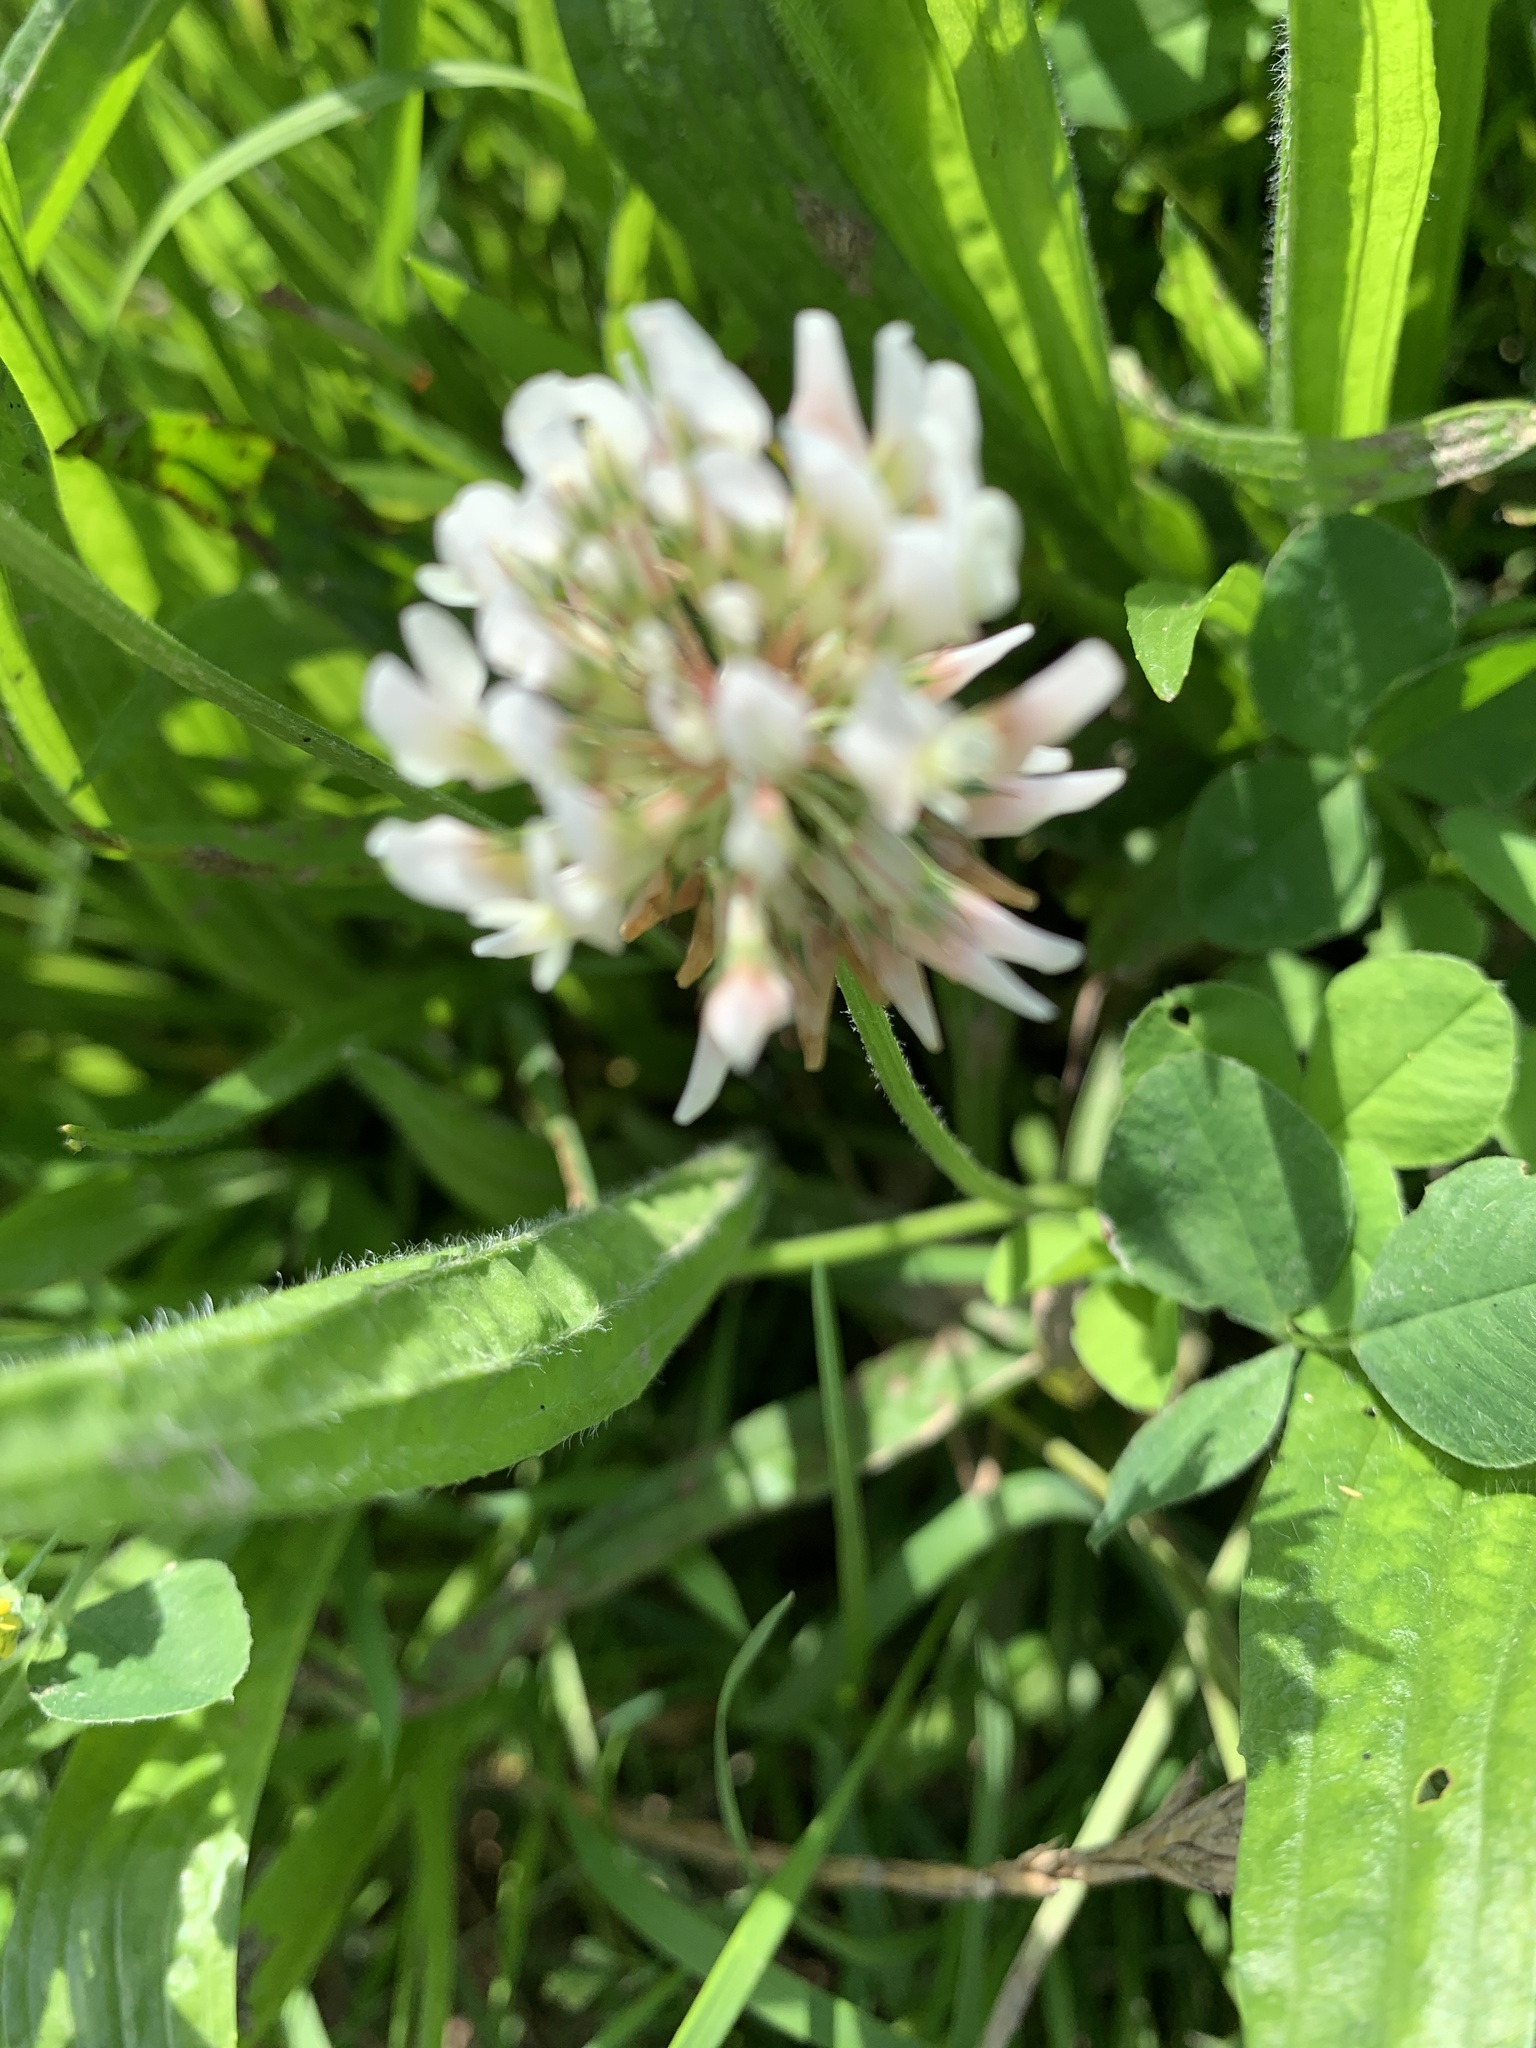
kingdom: Plantae
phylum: Tracheophyta
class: Magnoliopsida
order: Fabales
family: Fabaceae
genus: Trifolium
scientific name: Trifolium repens
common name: White clover
